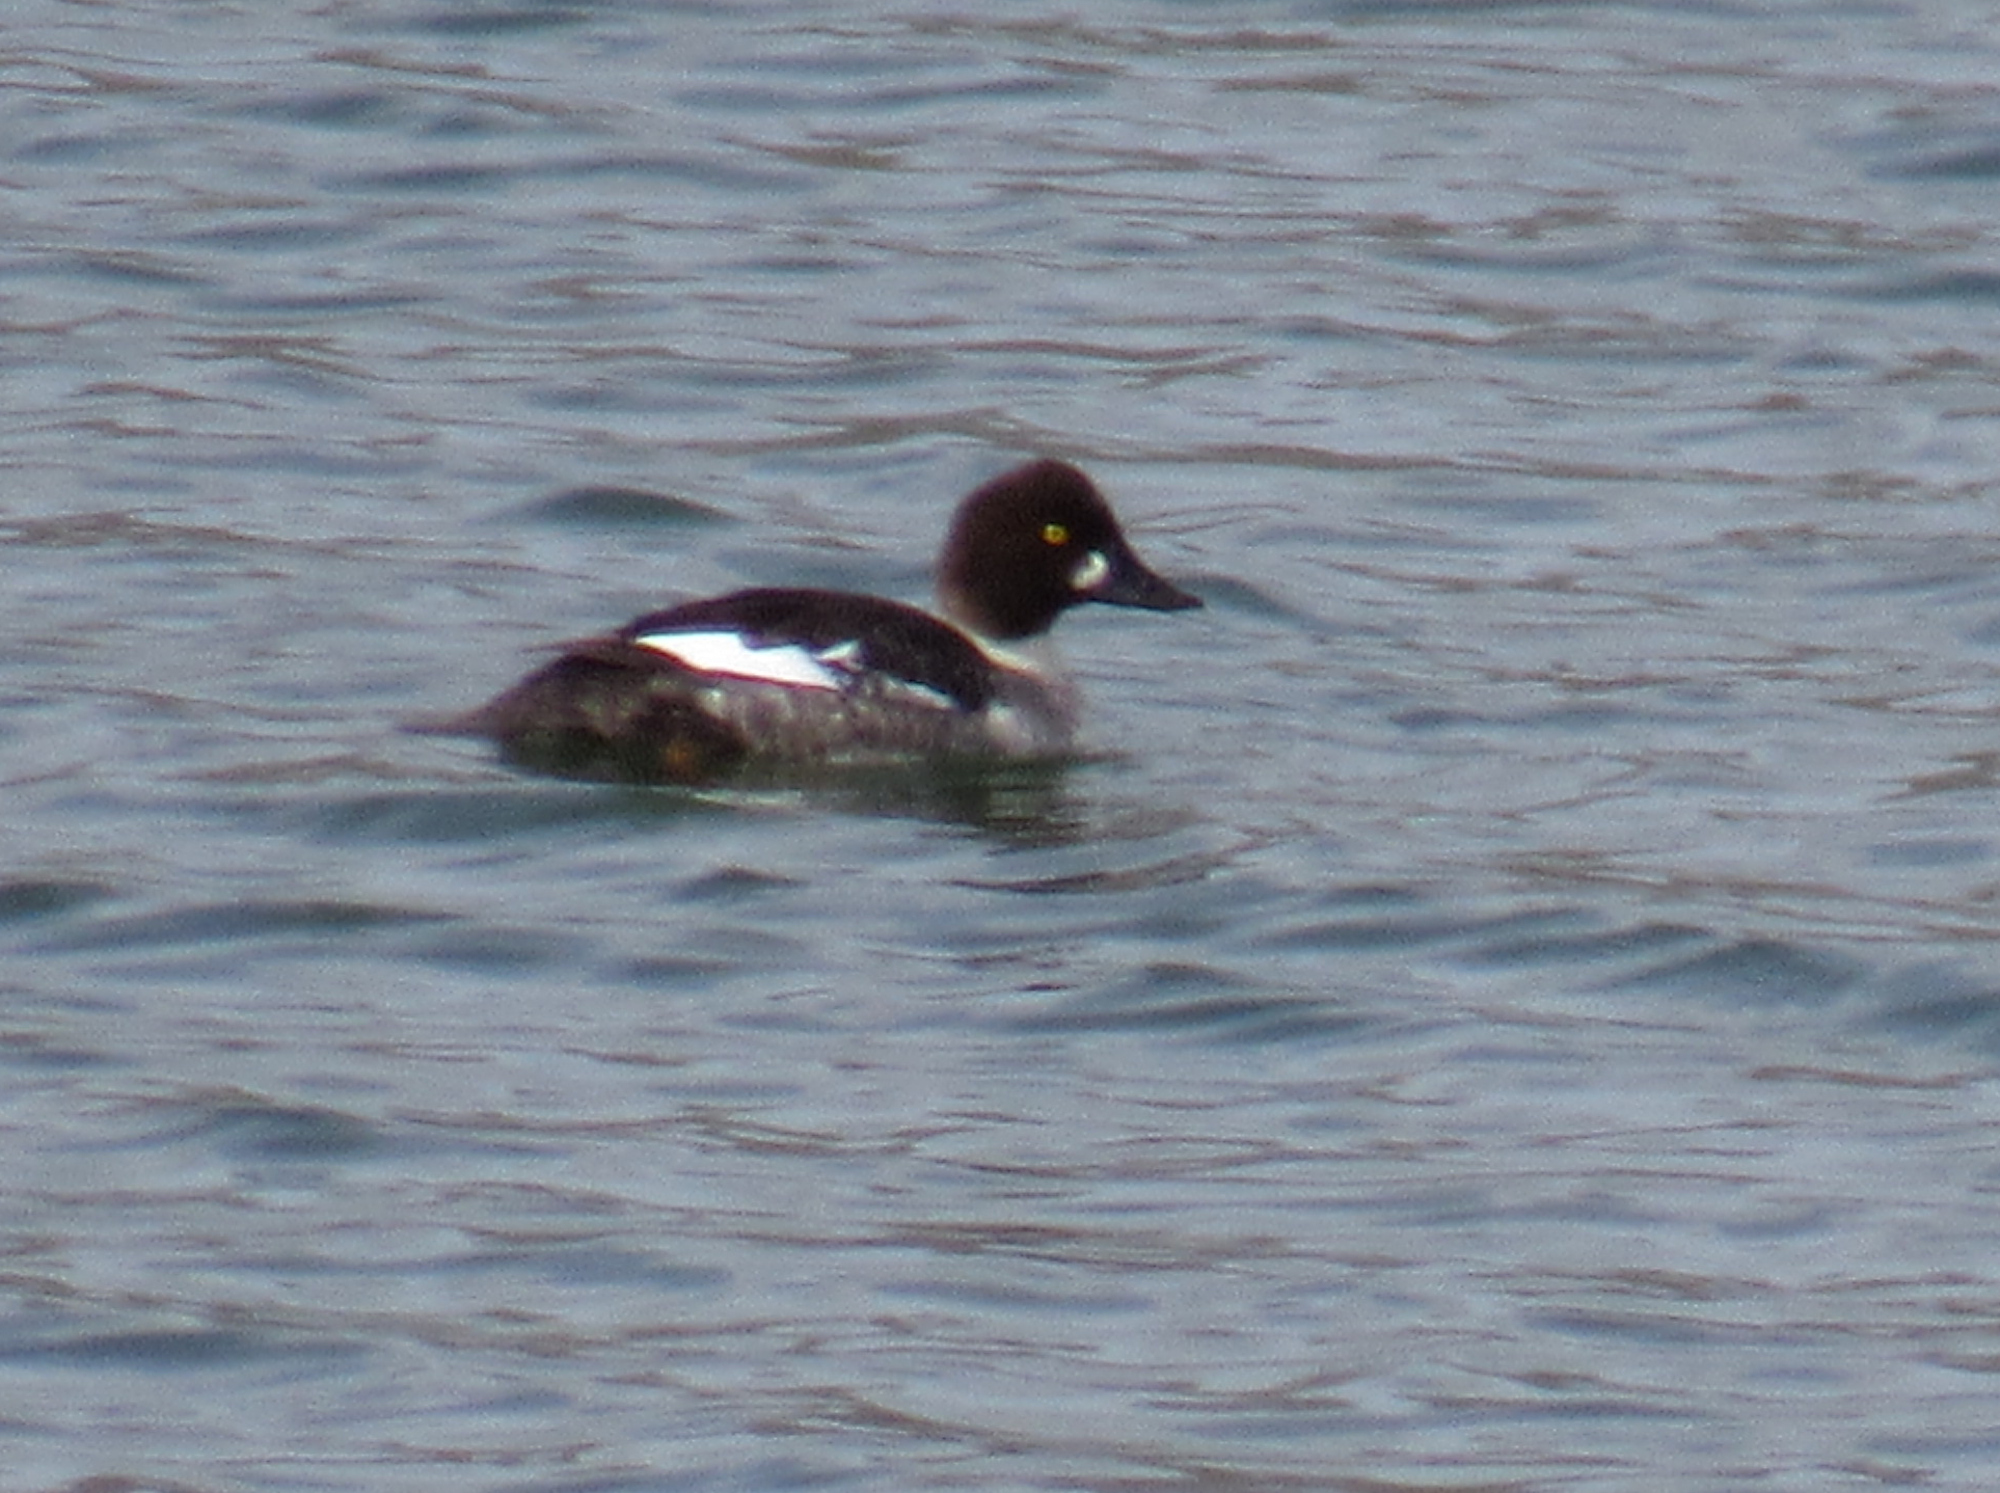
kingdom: Animalia
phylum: Chordata
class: Aves
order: Anseriformes
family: Anatidae
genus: Bucephala
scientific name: Bucephala clangula
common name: Common goldeneye
